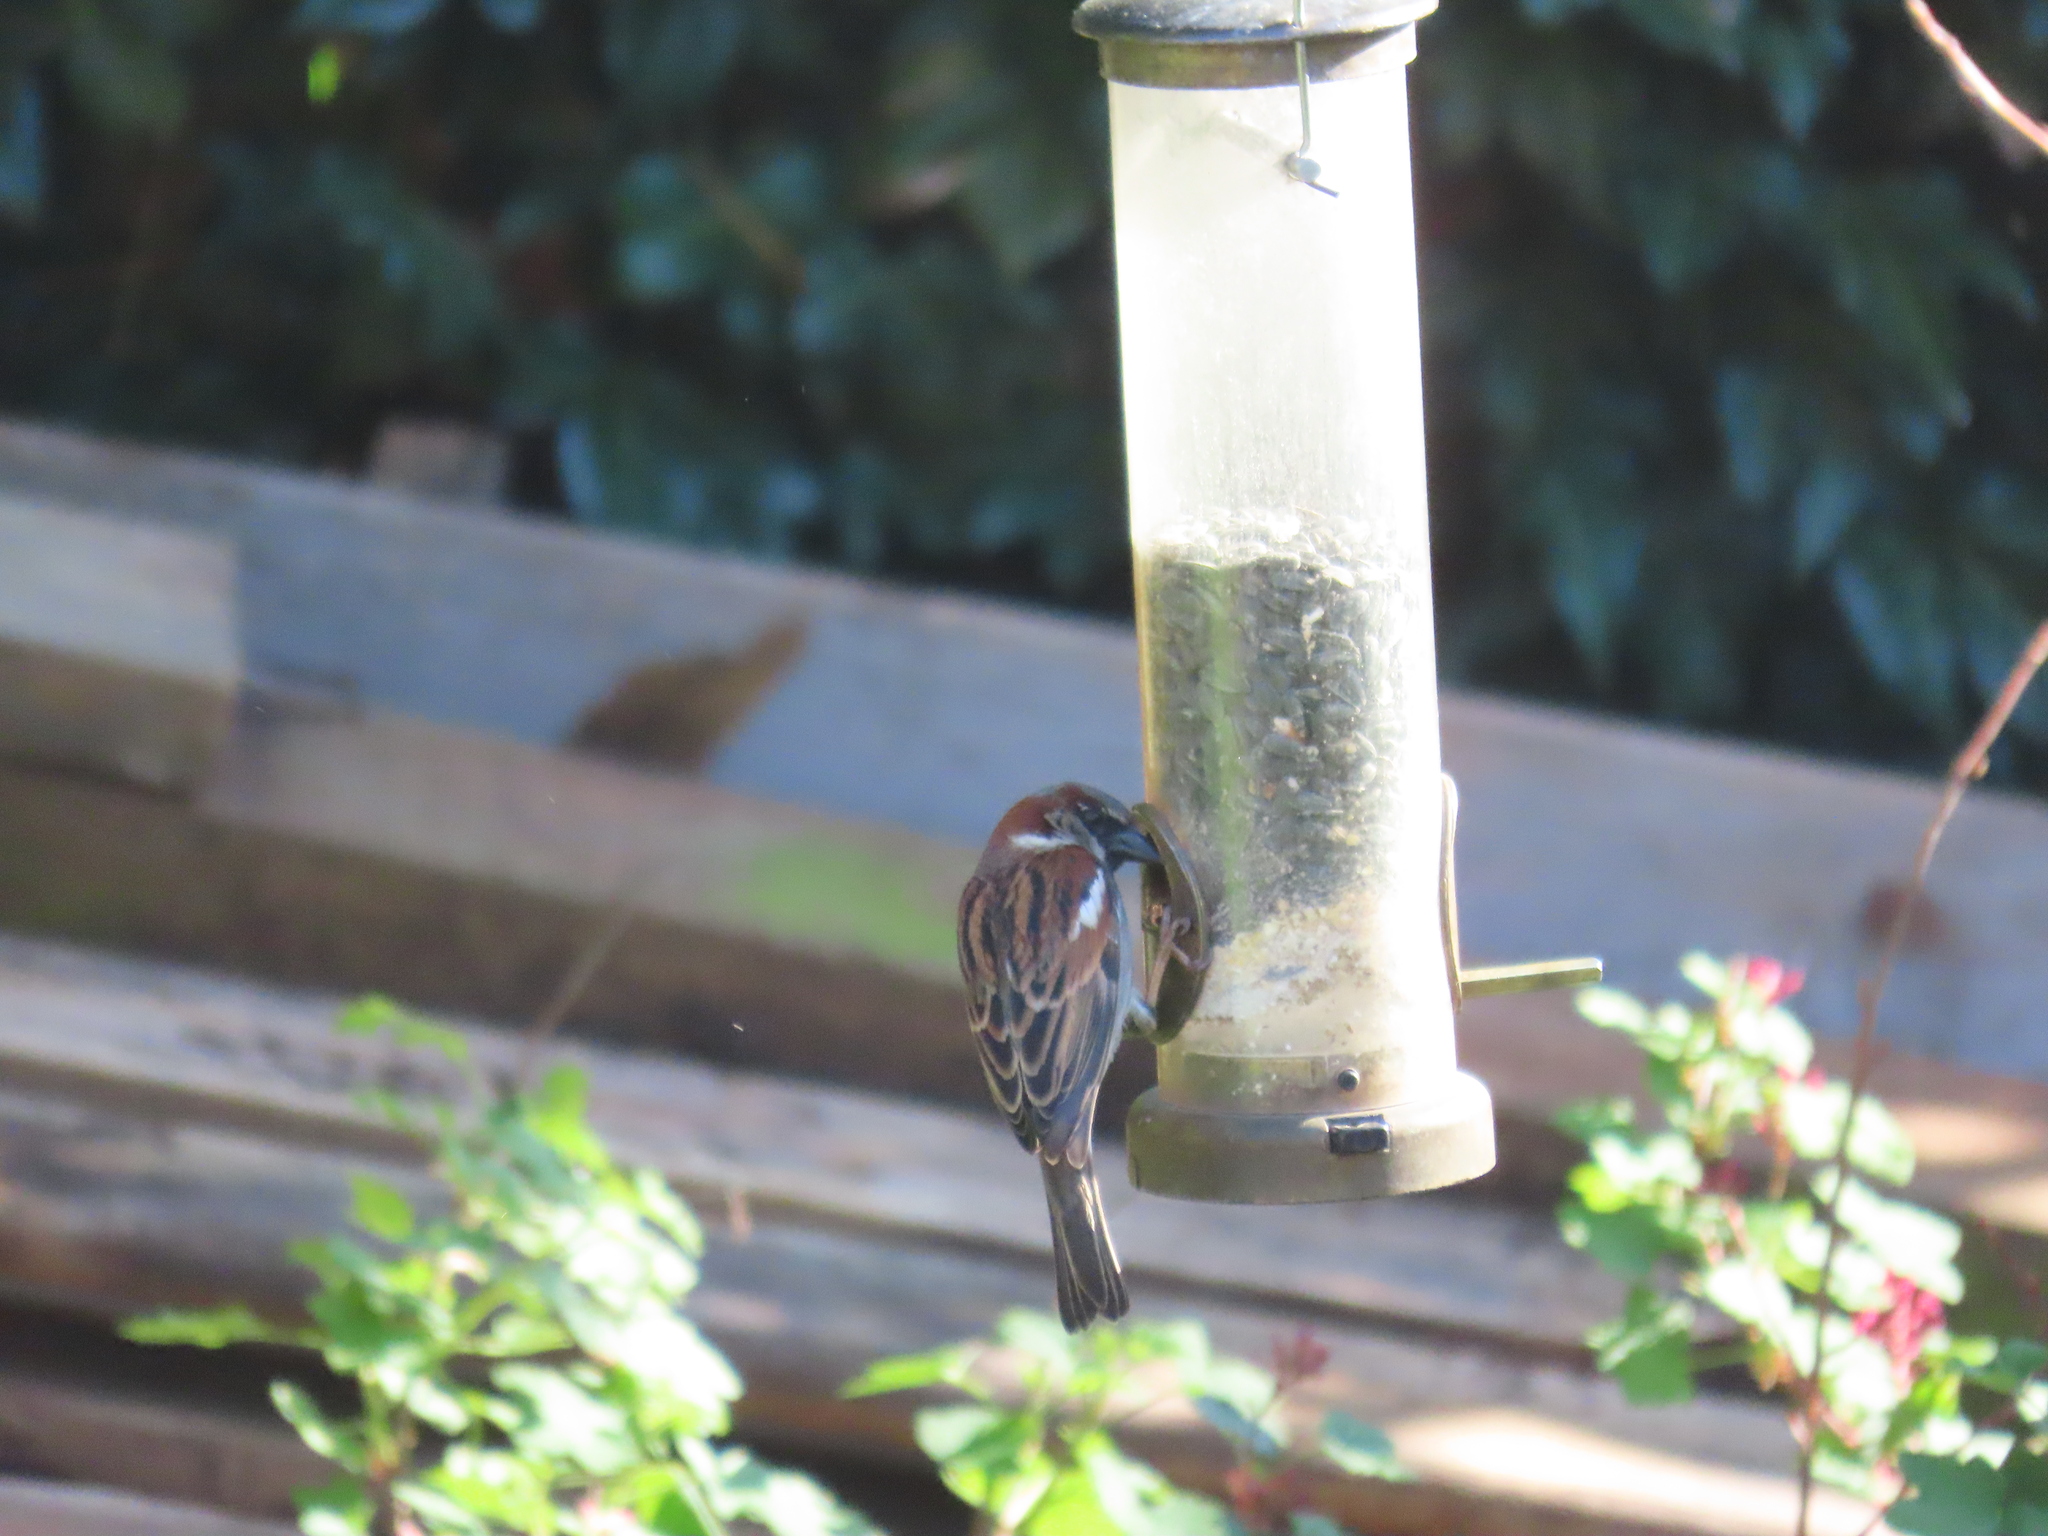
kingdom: Animalia
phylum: Chordata
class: Aves
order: Passeriformes
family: Passeridae
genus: Passer
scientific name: Passer domesticus
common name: House sparrow
